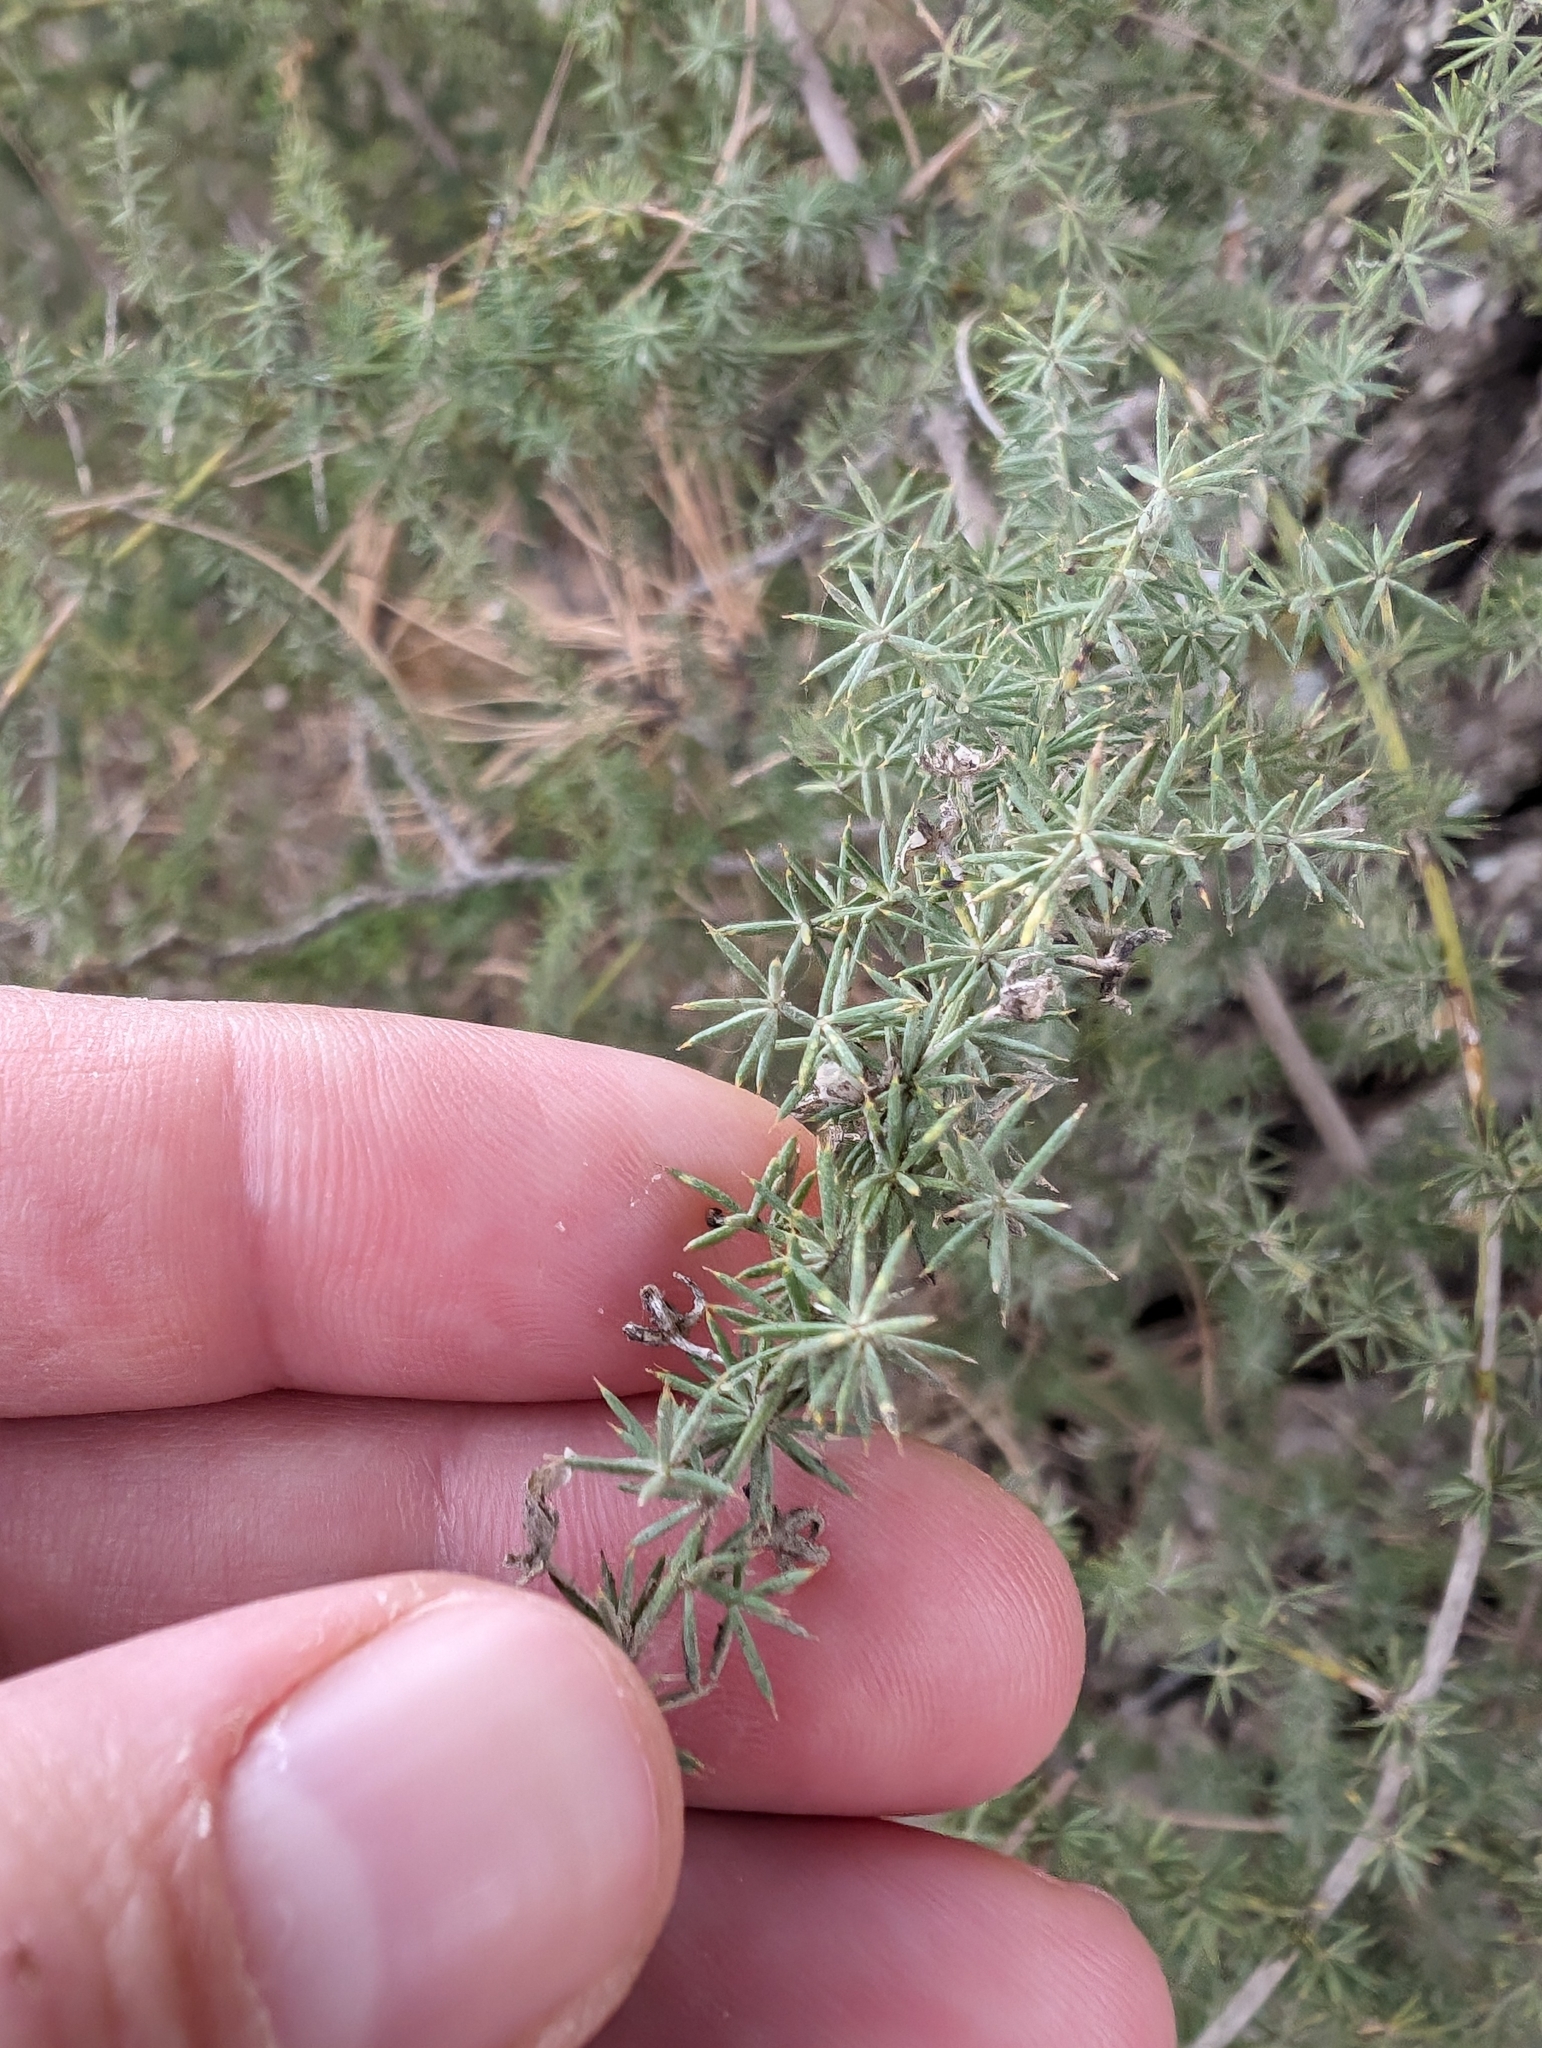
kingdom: Plantae
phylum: Tracheophyta
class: Liliopsida
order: Asparagales
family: Asparagaceae
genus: Asparagus
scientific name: Asparagus acutifolius
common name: Wild asparagus
